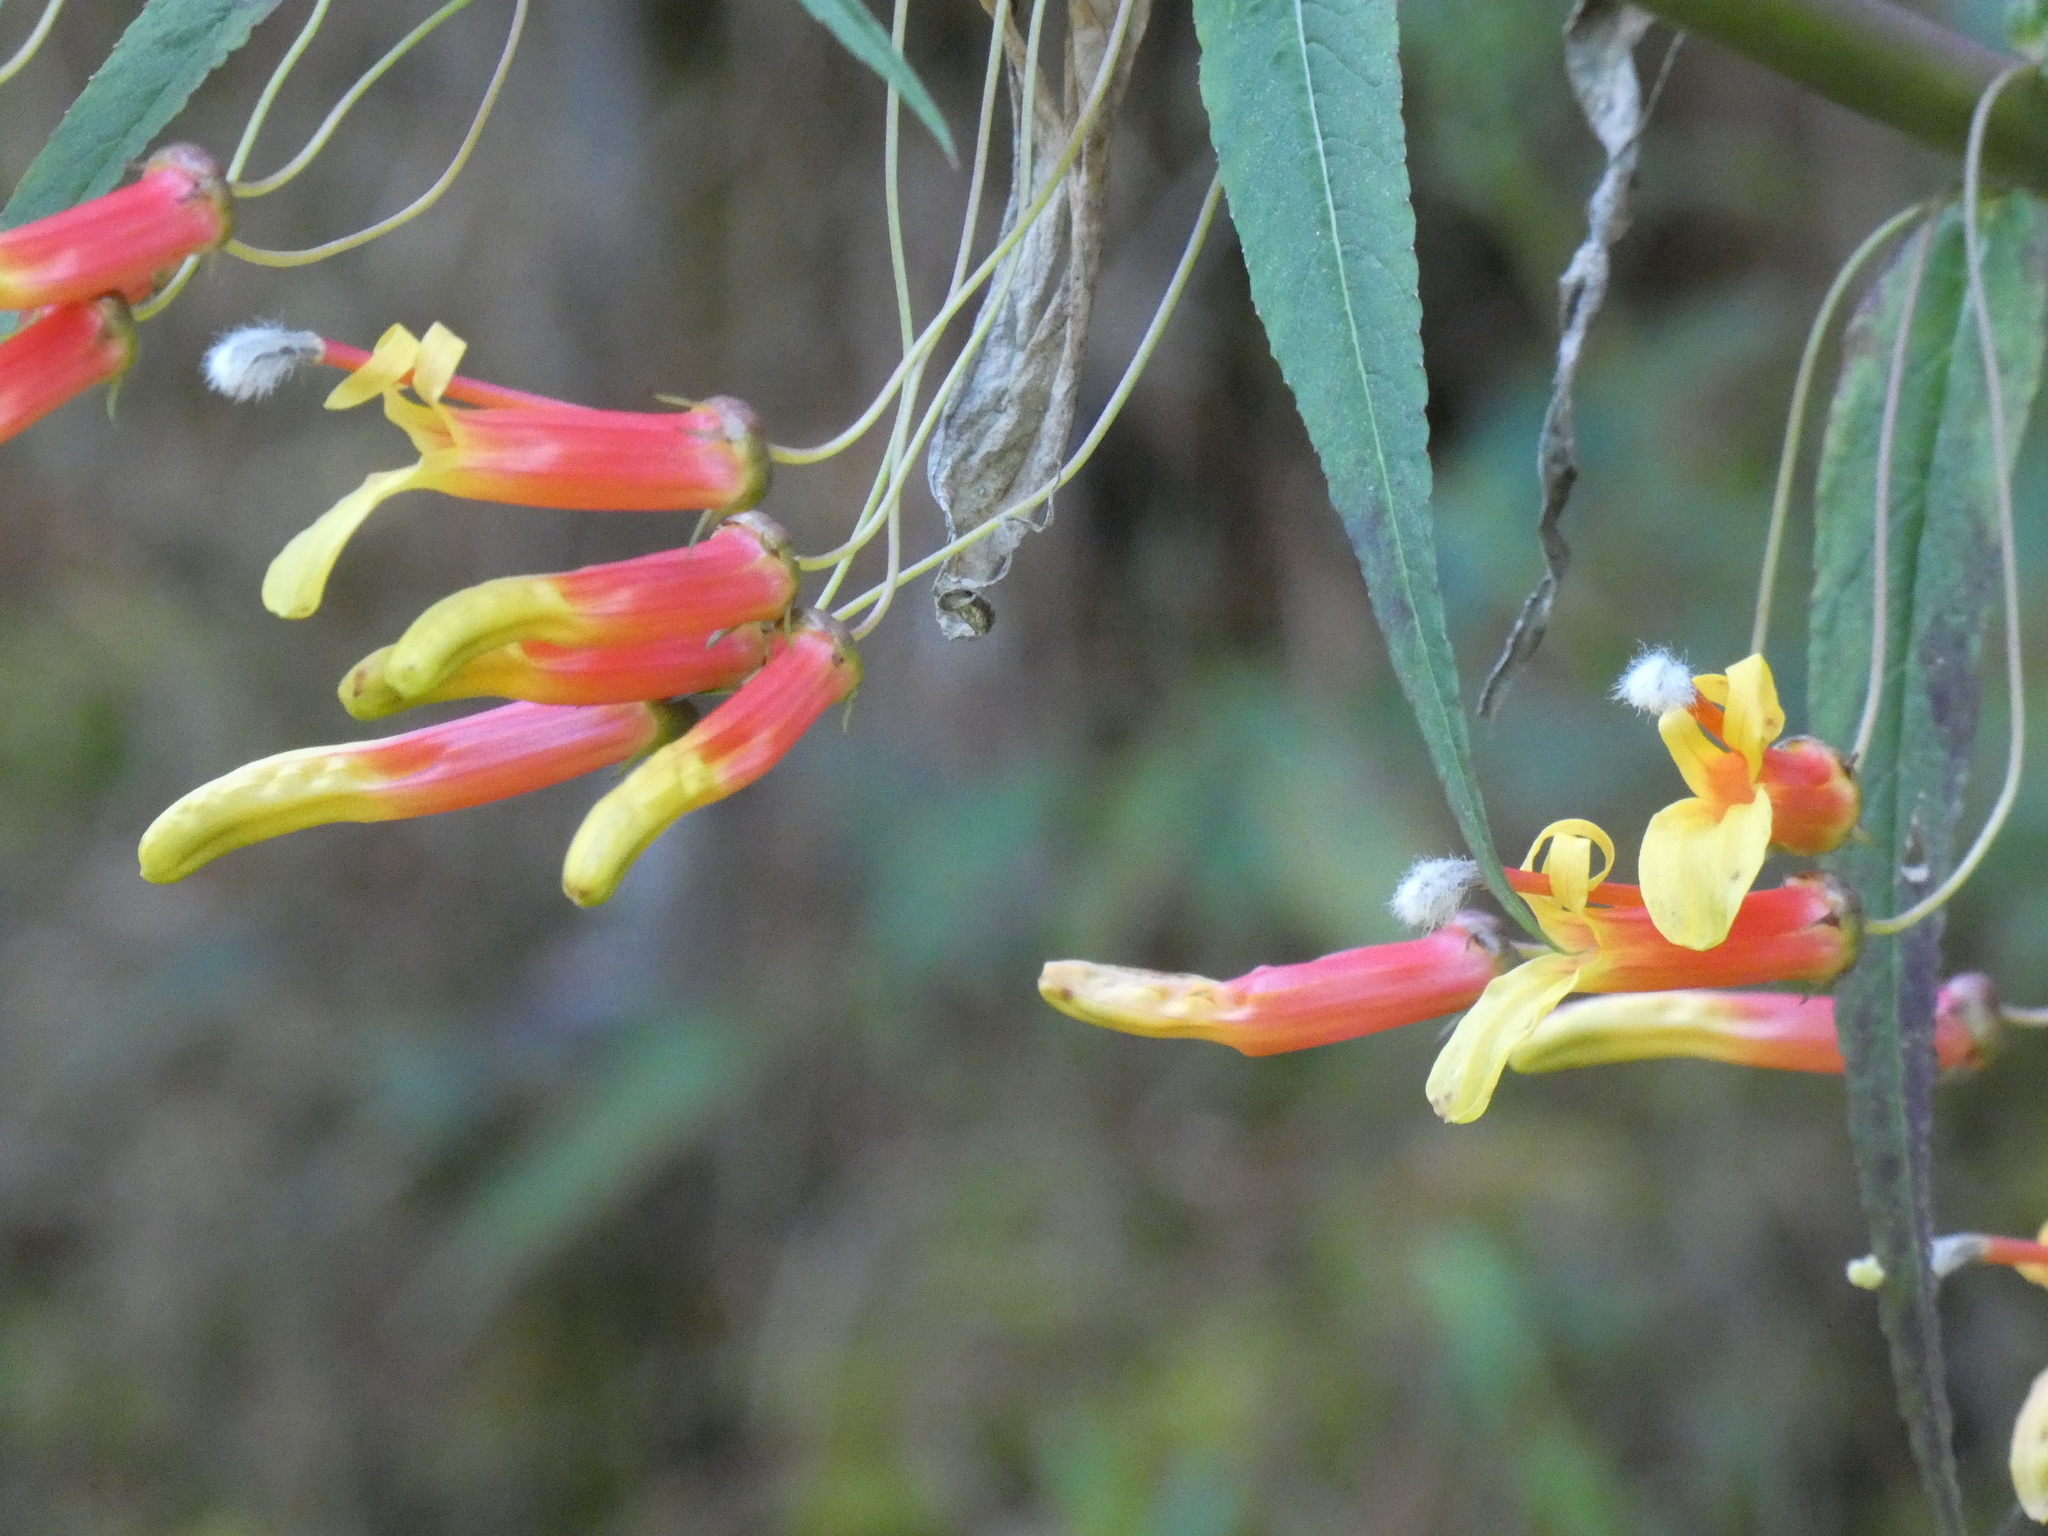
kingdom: Plantae
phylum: Tracheophyta
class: Magnoliopsida
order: Asterales
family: Campanulaceae
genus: Lobelia
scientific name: Lobelia laxiflora
